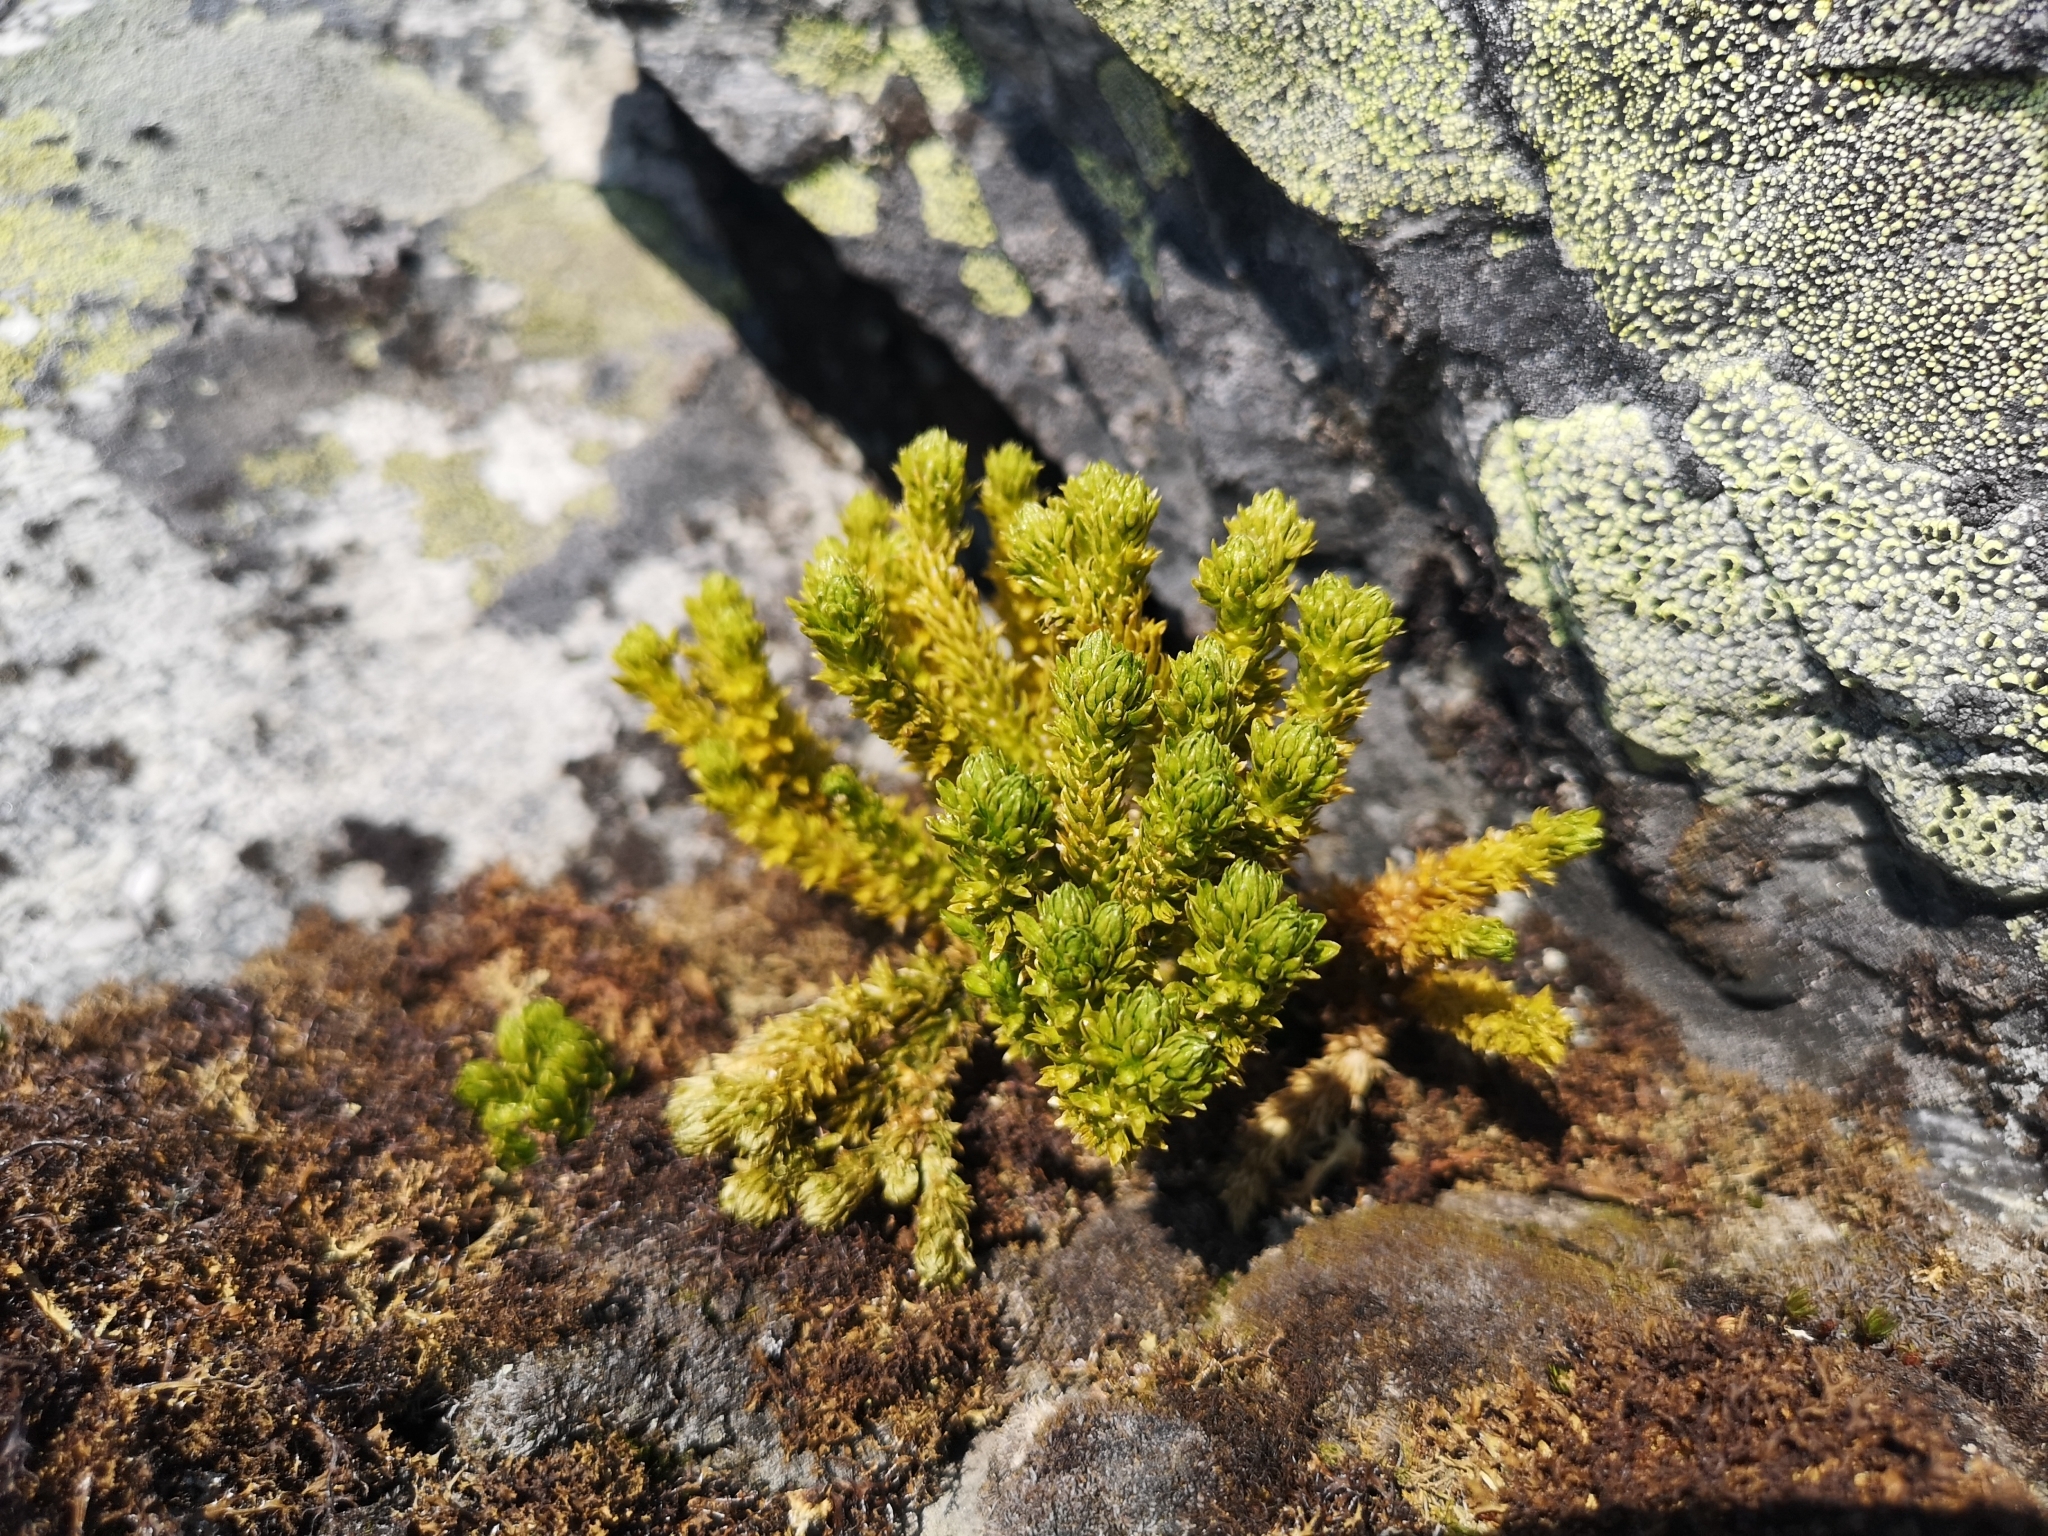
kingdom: Plantae
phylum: Tracheophyta
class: Lycopodiopsida
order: Lycopodiales
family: Lycopodiaceae
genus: Huperzia
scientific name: Huperzia selago
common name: Northern firmoss
